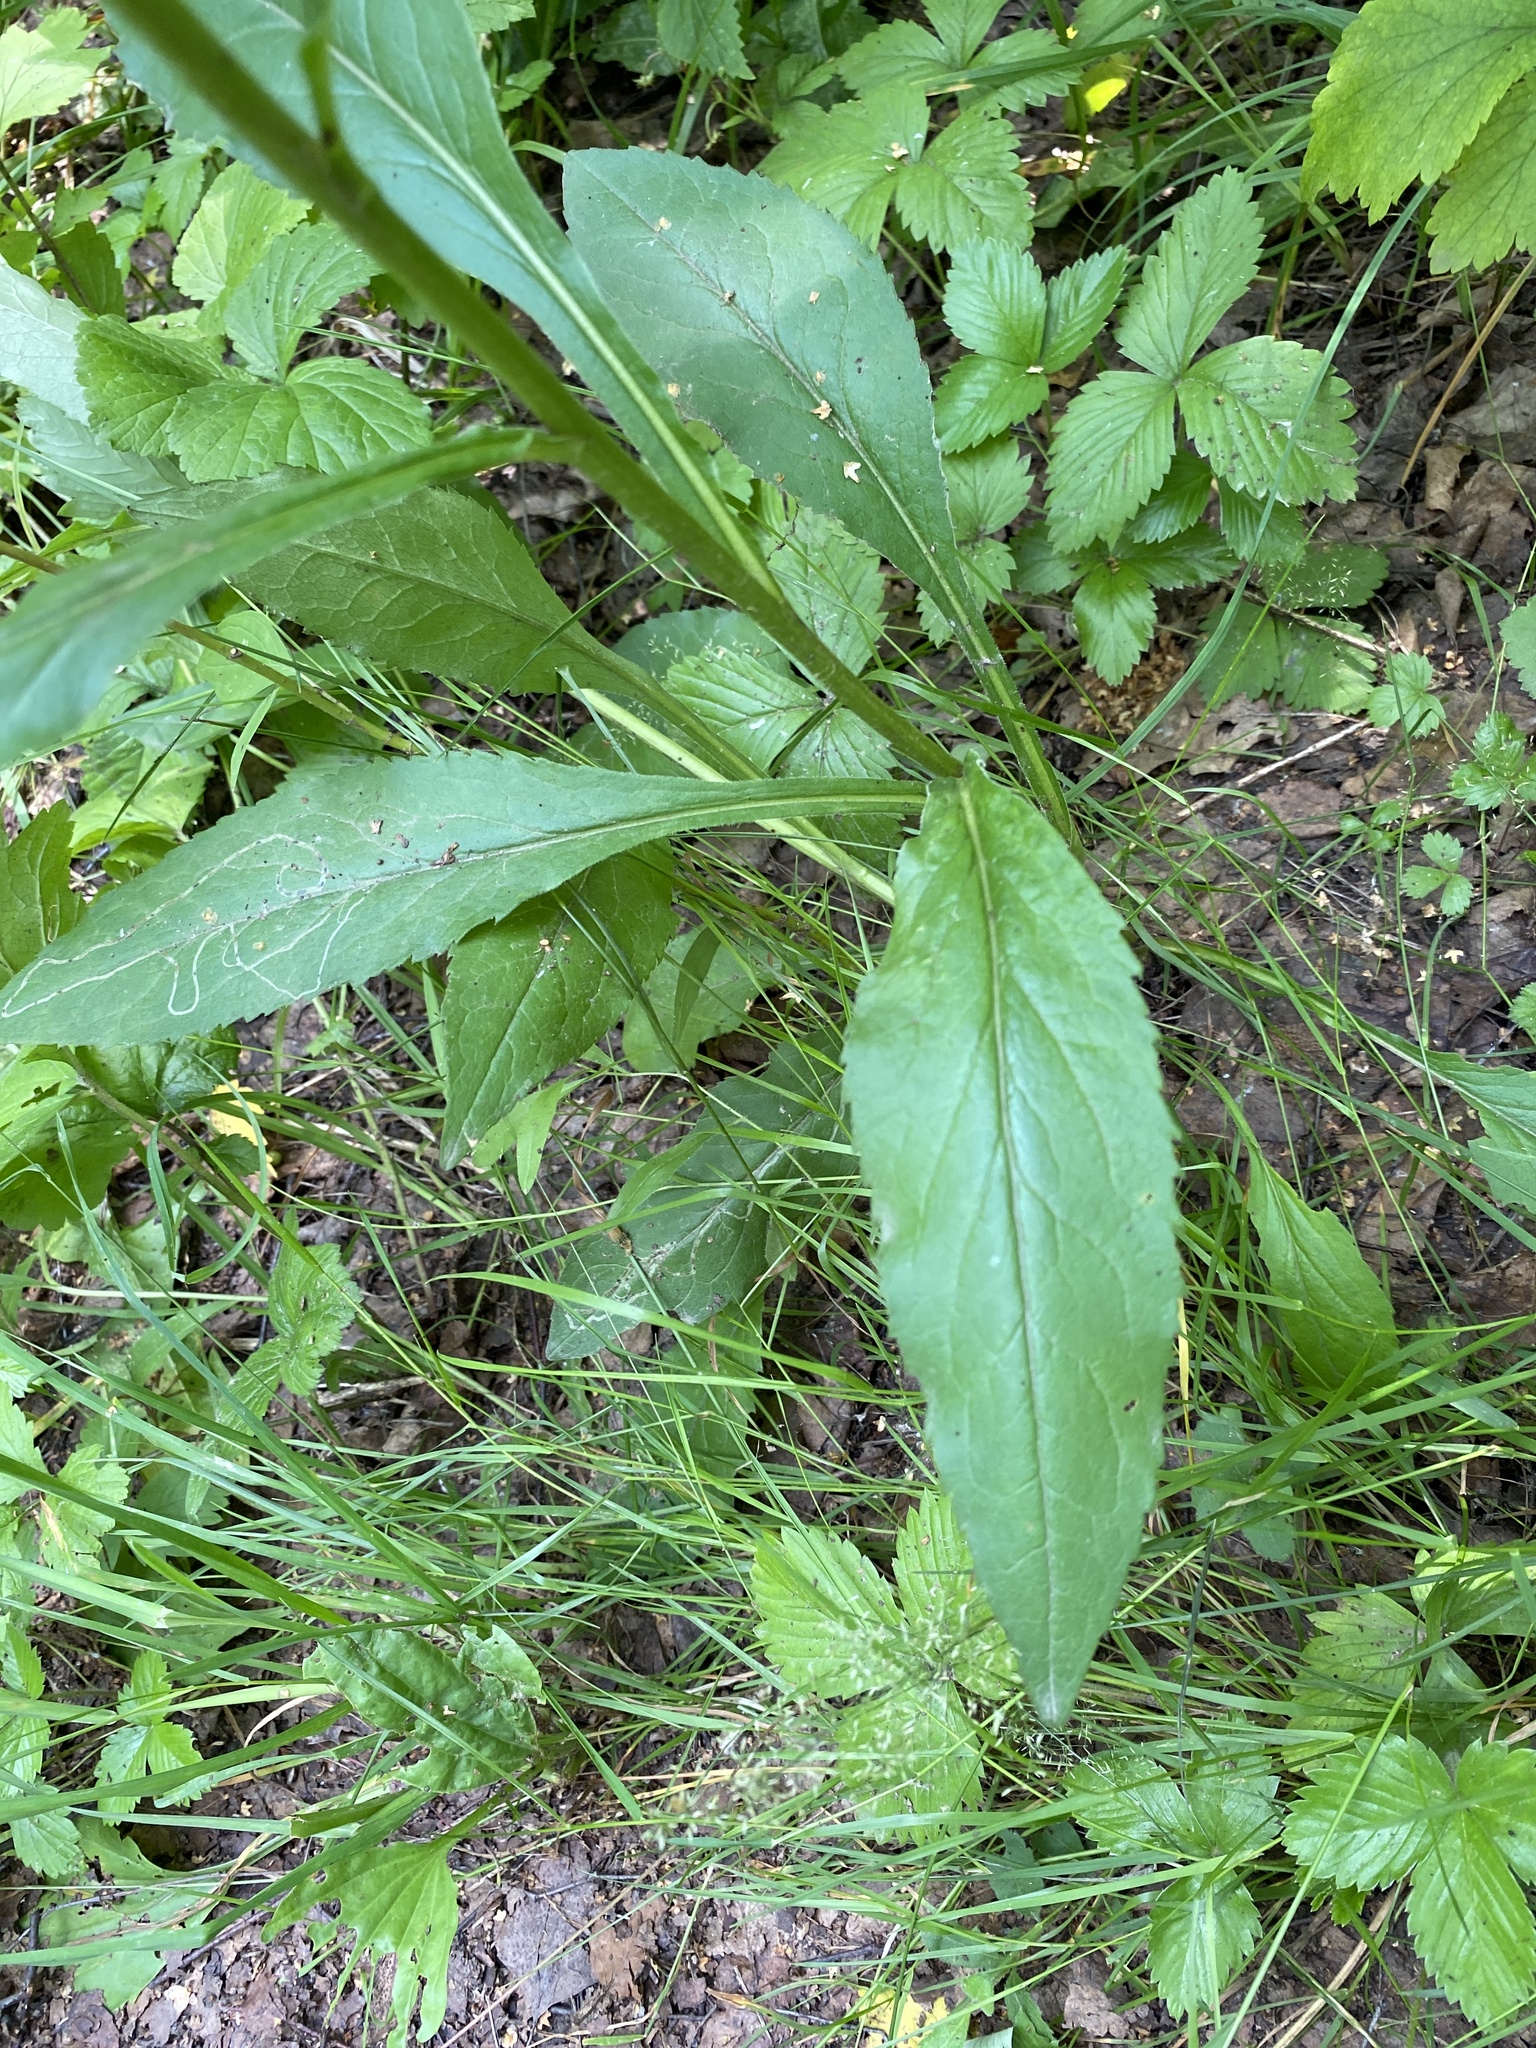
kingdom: Plantae
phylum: Tracheophyta
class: Magnoliopsida
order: Asterales
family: Asteraceae
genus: Solidago
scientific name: Solidago virgaurea
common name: Goldenrod
